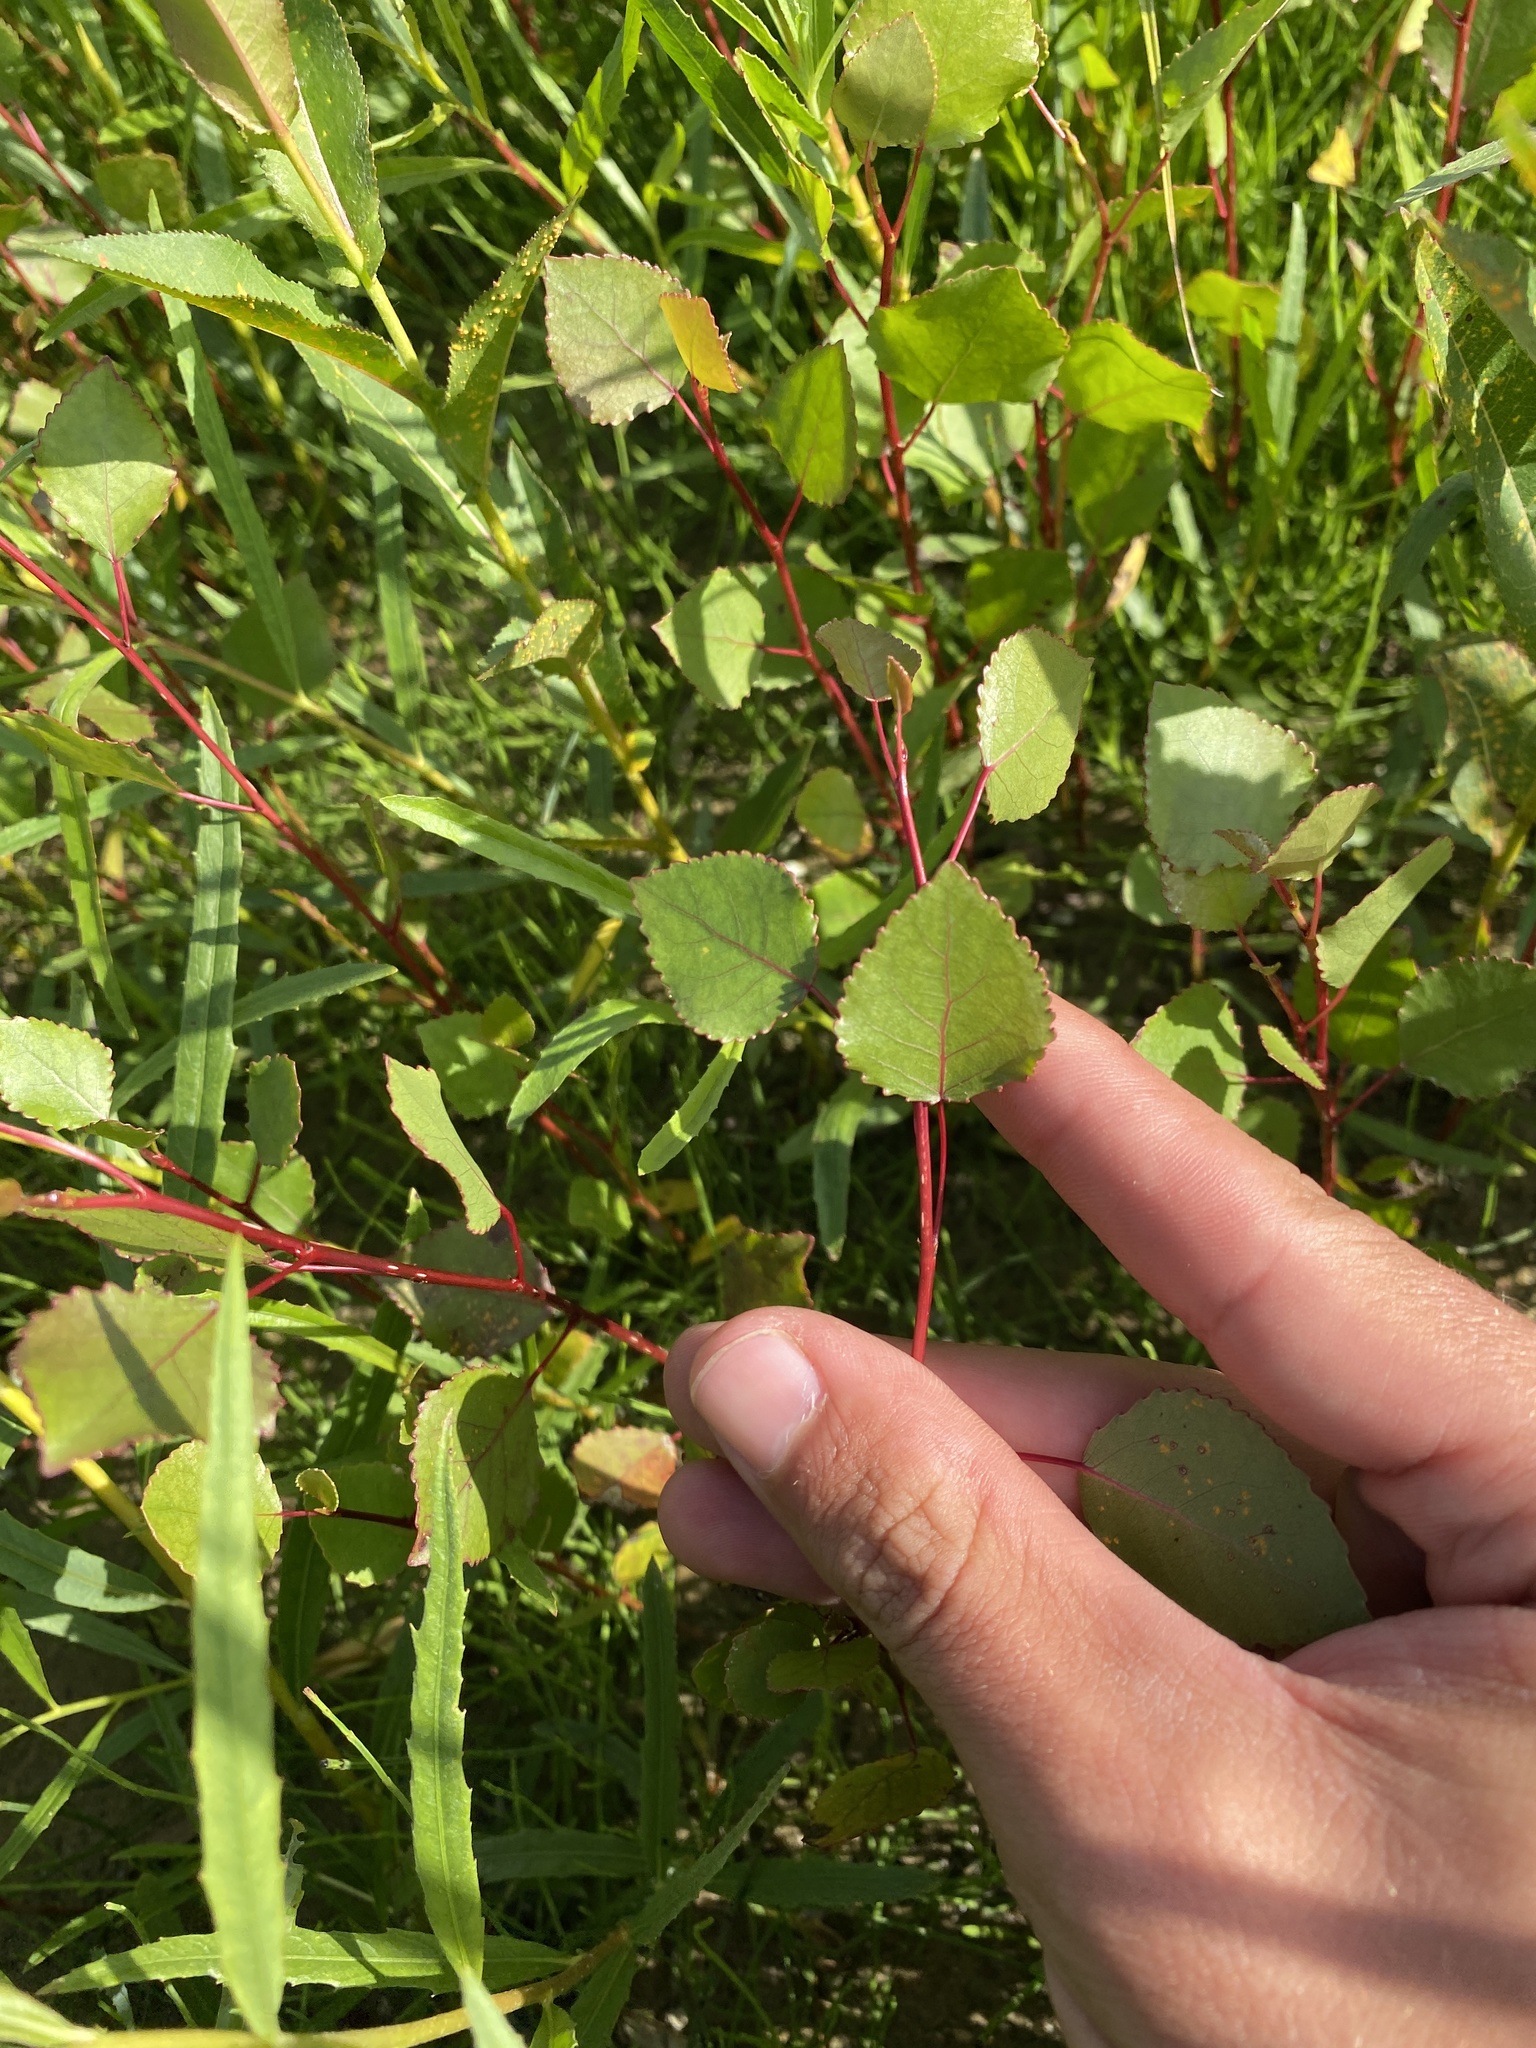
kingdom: Plantae
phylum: Tracheophyta
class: Magnoliopsida
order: Malpighiales
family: Salicaceae
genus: Populus
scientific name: Populus deltoides
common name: Eastern cottonwood
